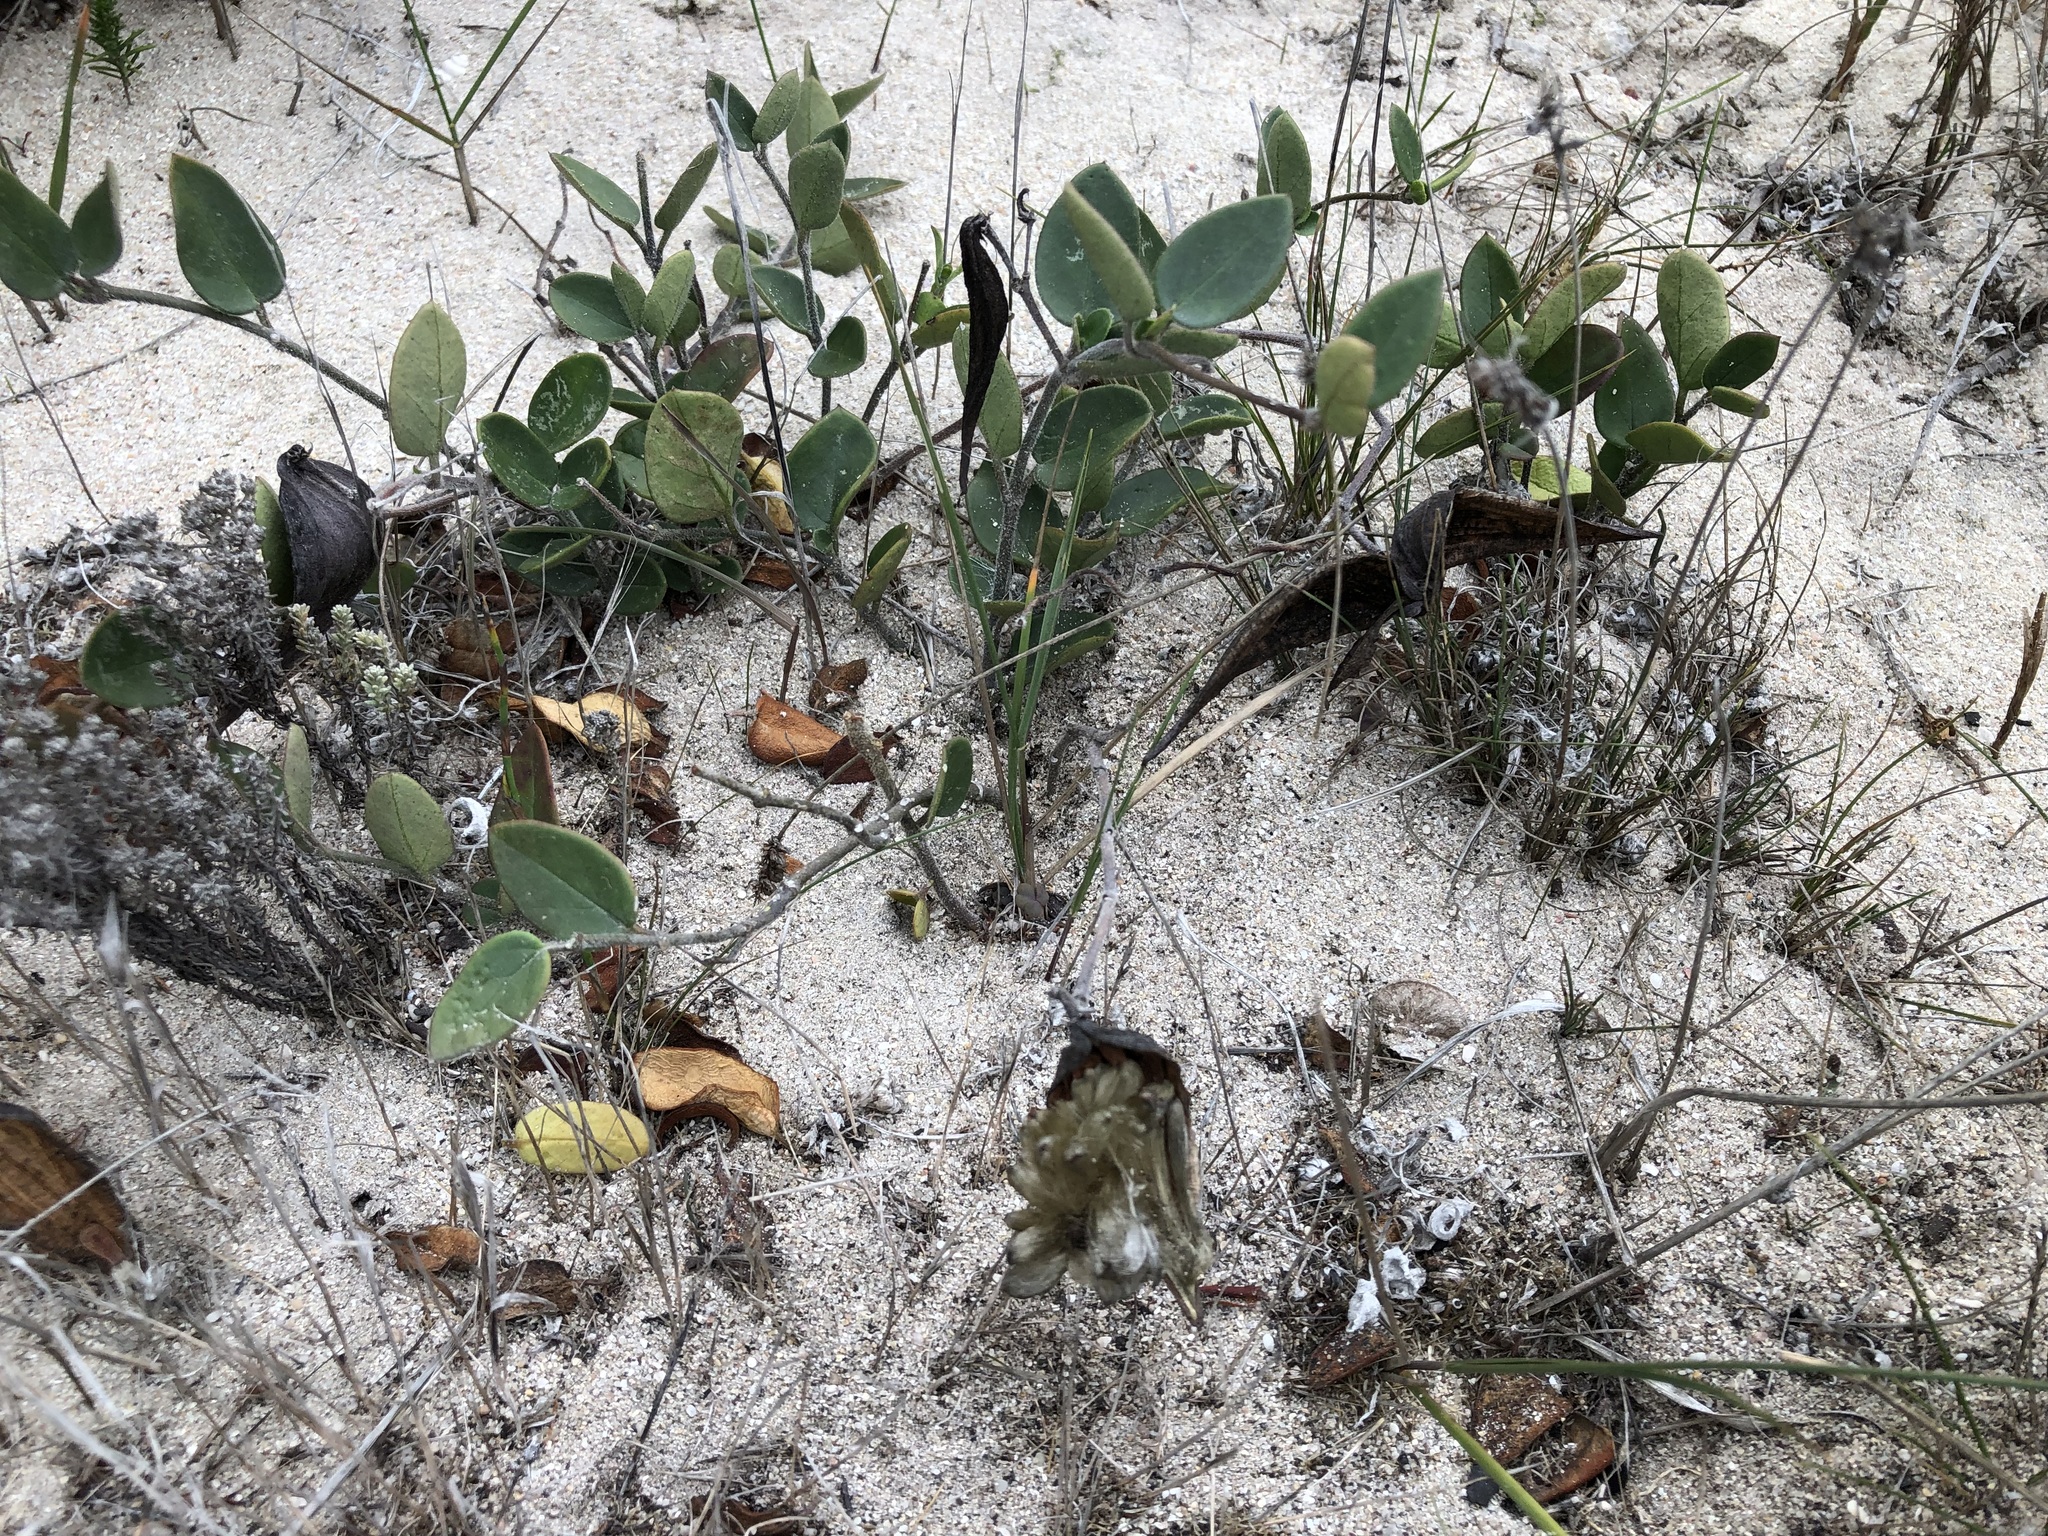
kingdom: Plantae
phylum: Tracheophyta
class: Magnoliopsida
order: Gentianales
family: Apocynaceae
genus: Cynanchum
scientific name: Cynanchum africanum
